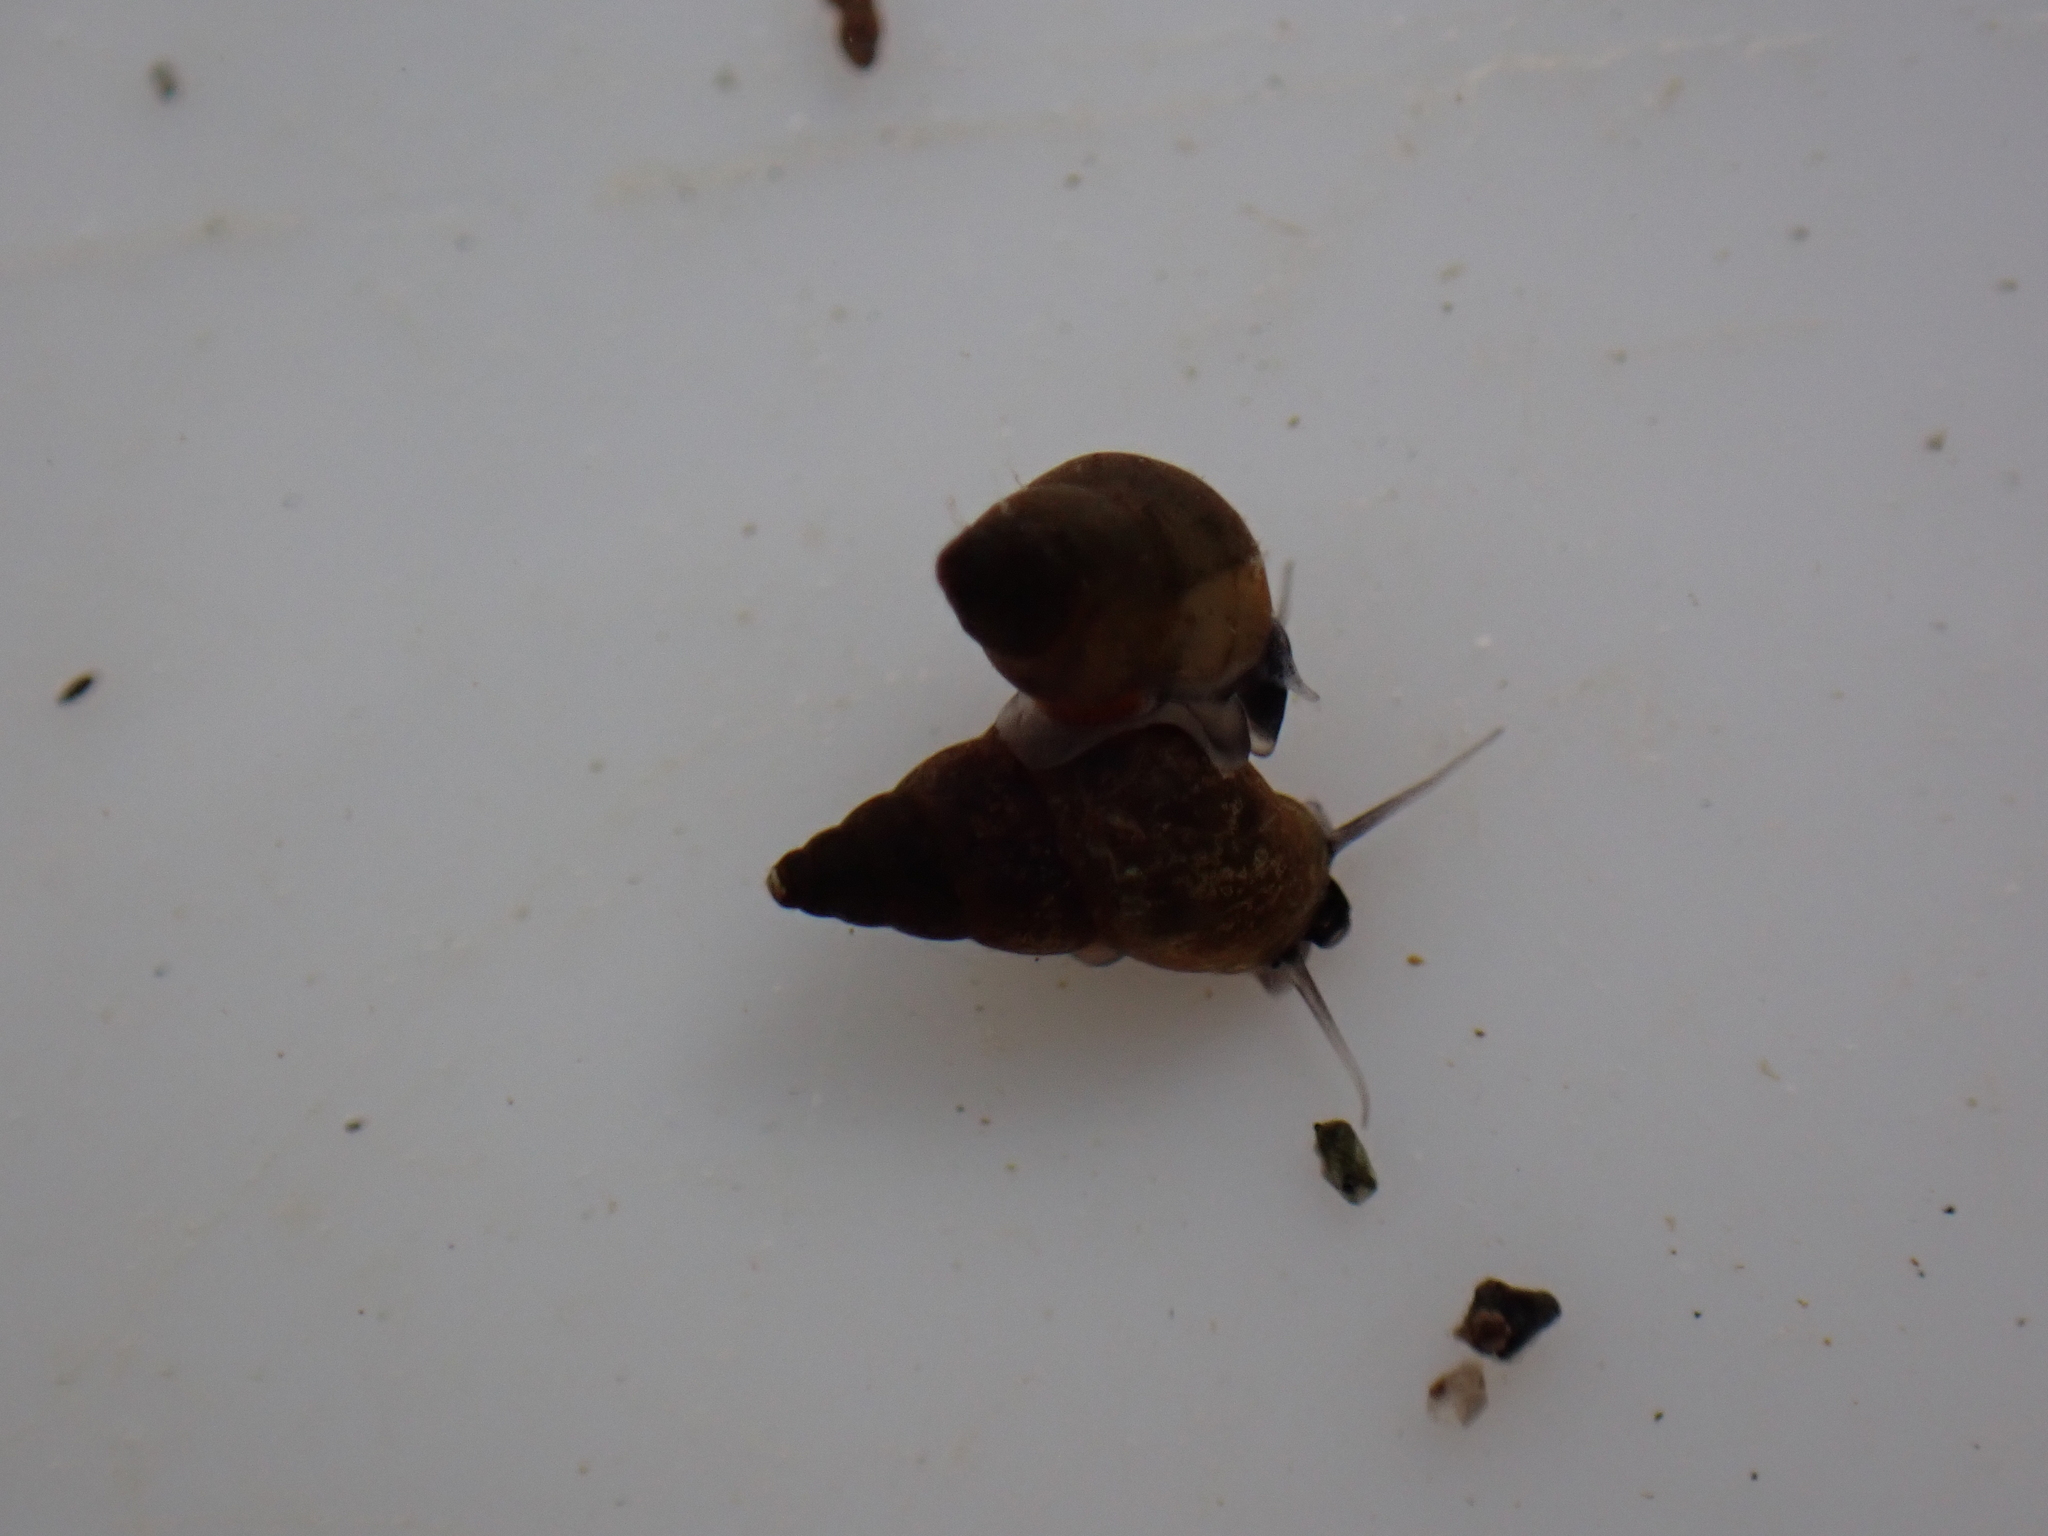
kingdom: Animalia
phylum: Mollusca
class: Gastropoda
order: Littorinimorpha
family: Tateidae
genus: Potamopyrgus
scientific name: Potamopyrgus antipodarum
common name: Jenkins' spire snail
